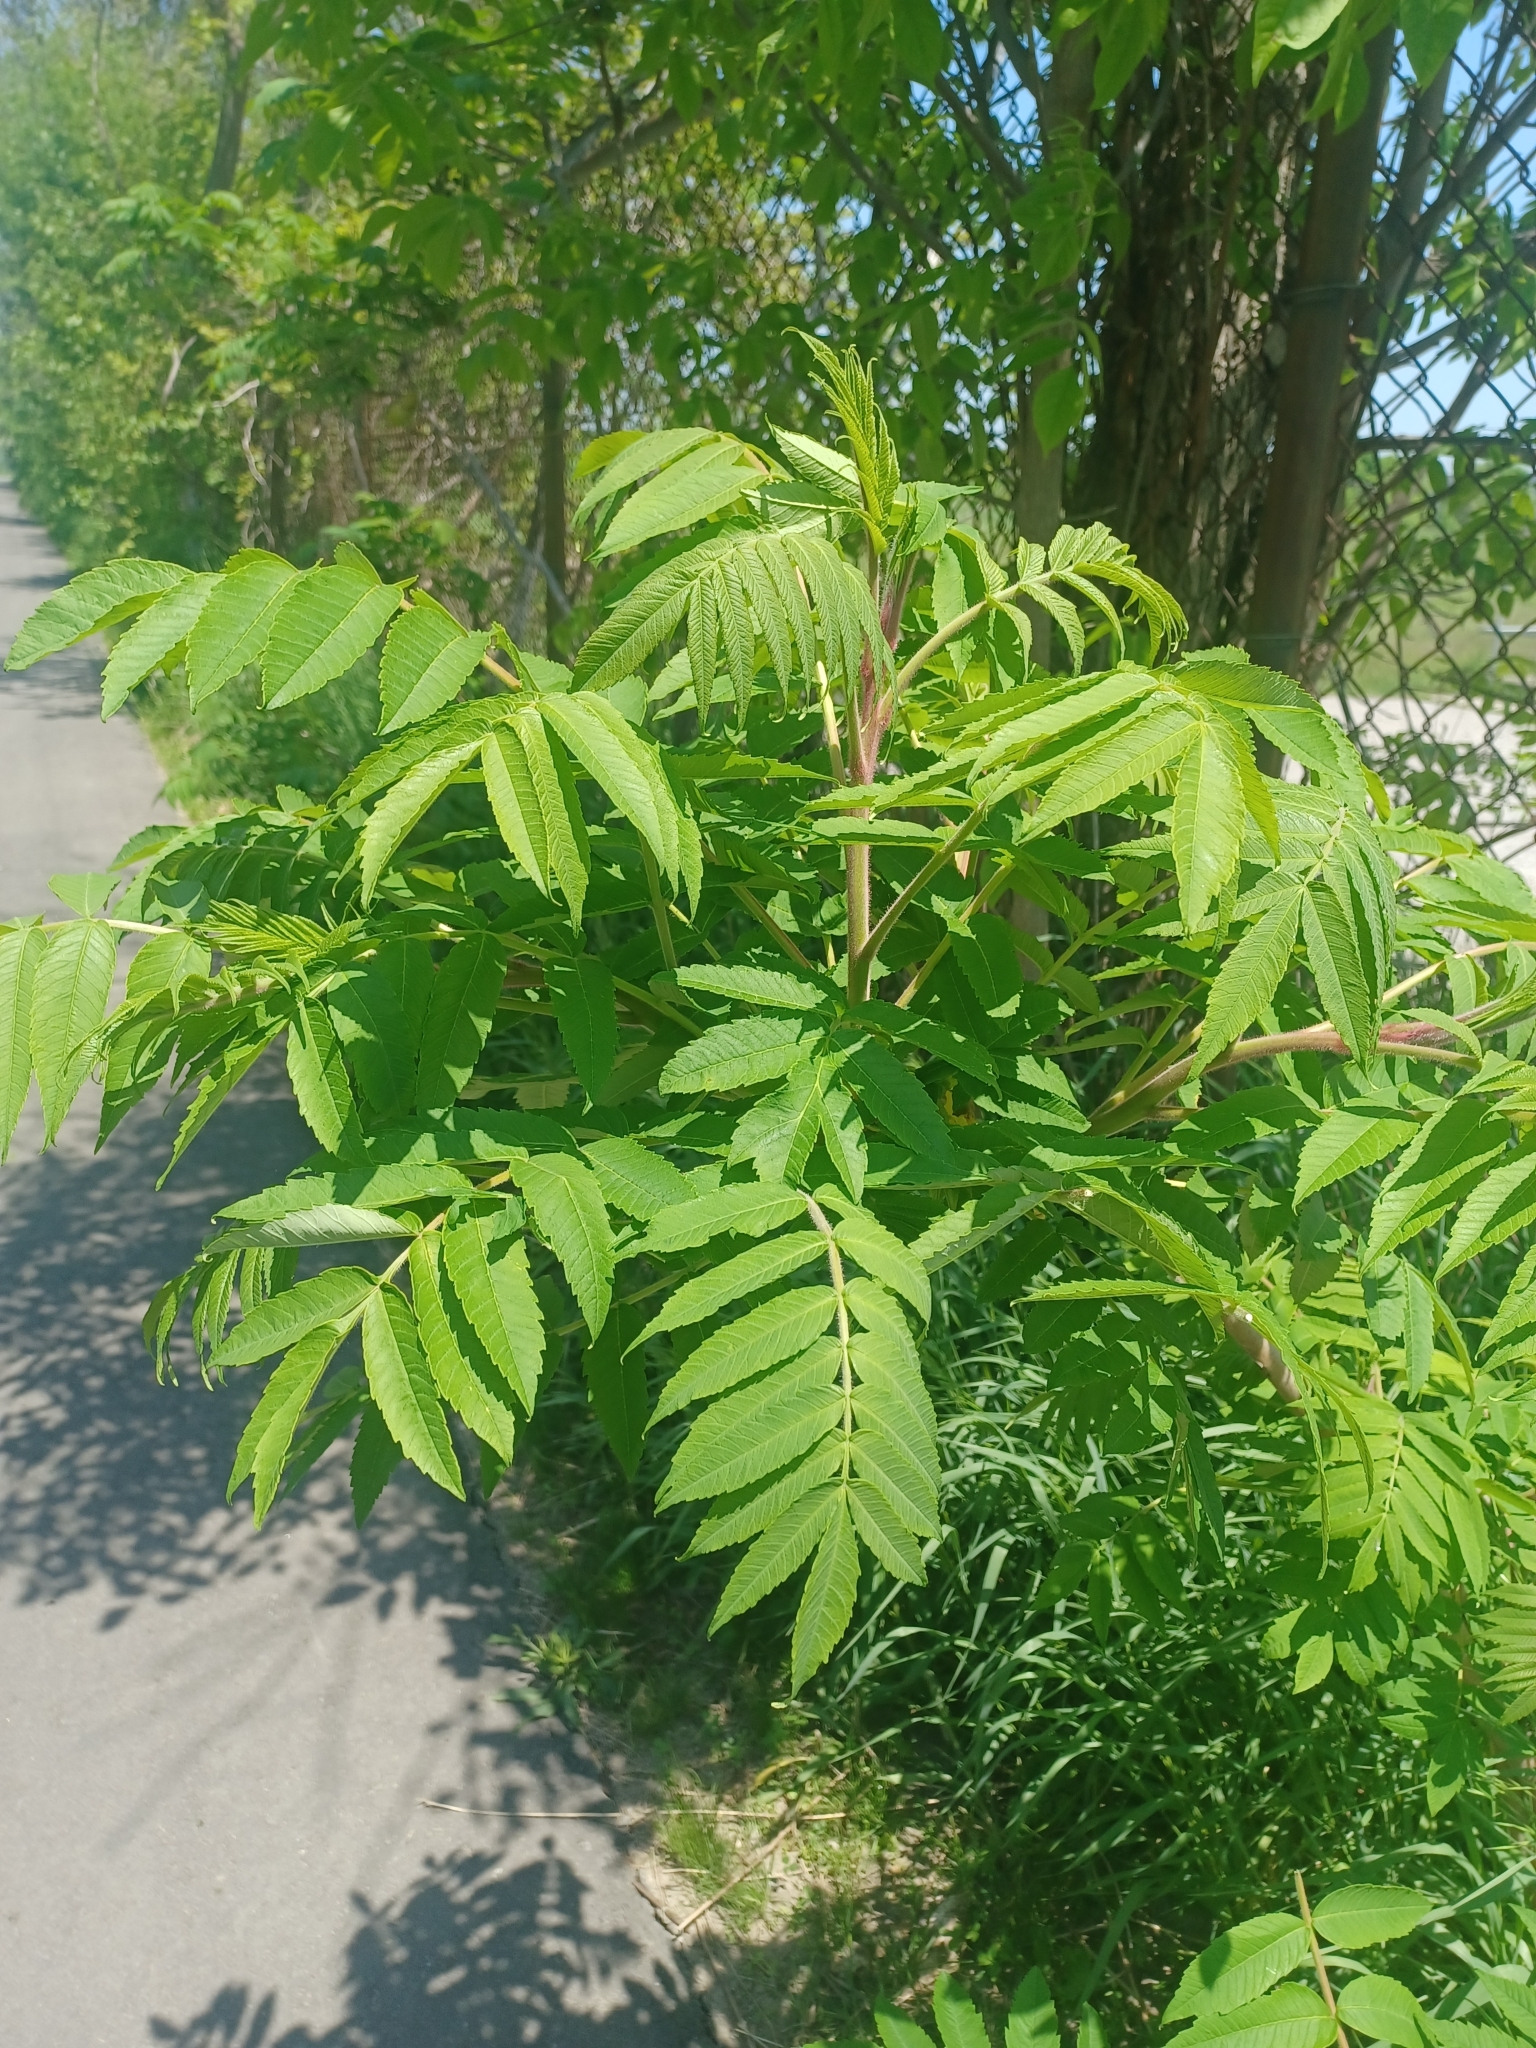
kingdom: Plantae
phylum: Tracheophyta
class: Magnoliopsida
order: Sapindales
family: Anacardiaceae
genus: Rhus
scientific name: Rhus typhina
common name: Staghorn sumac
